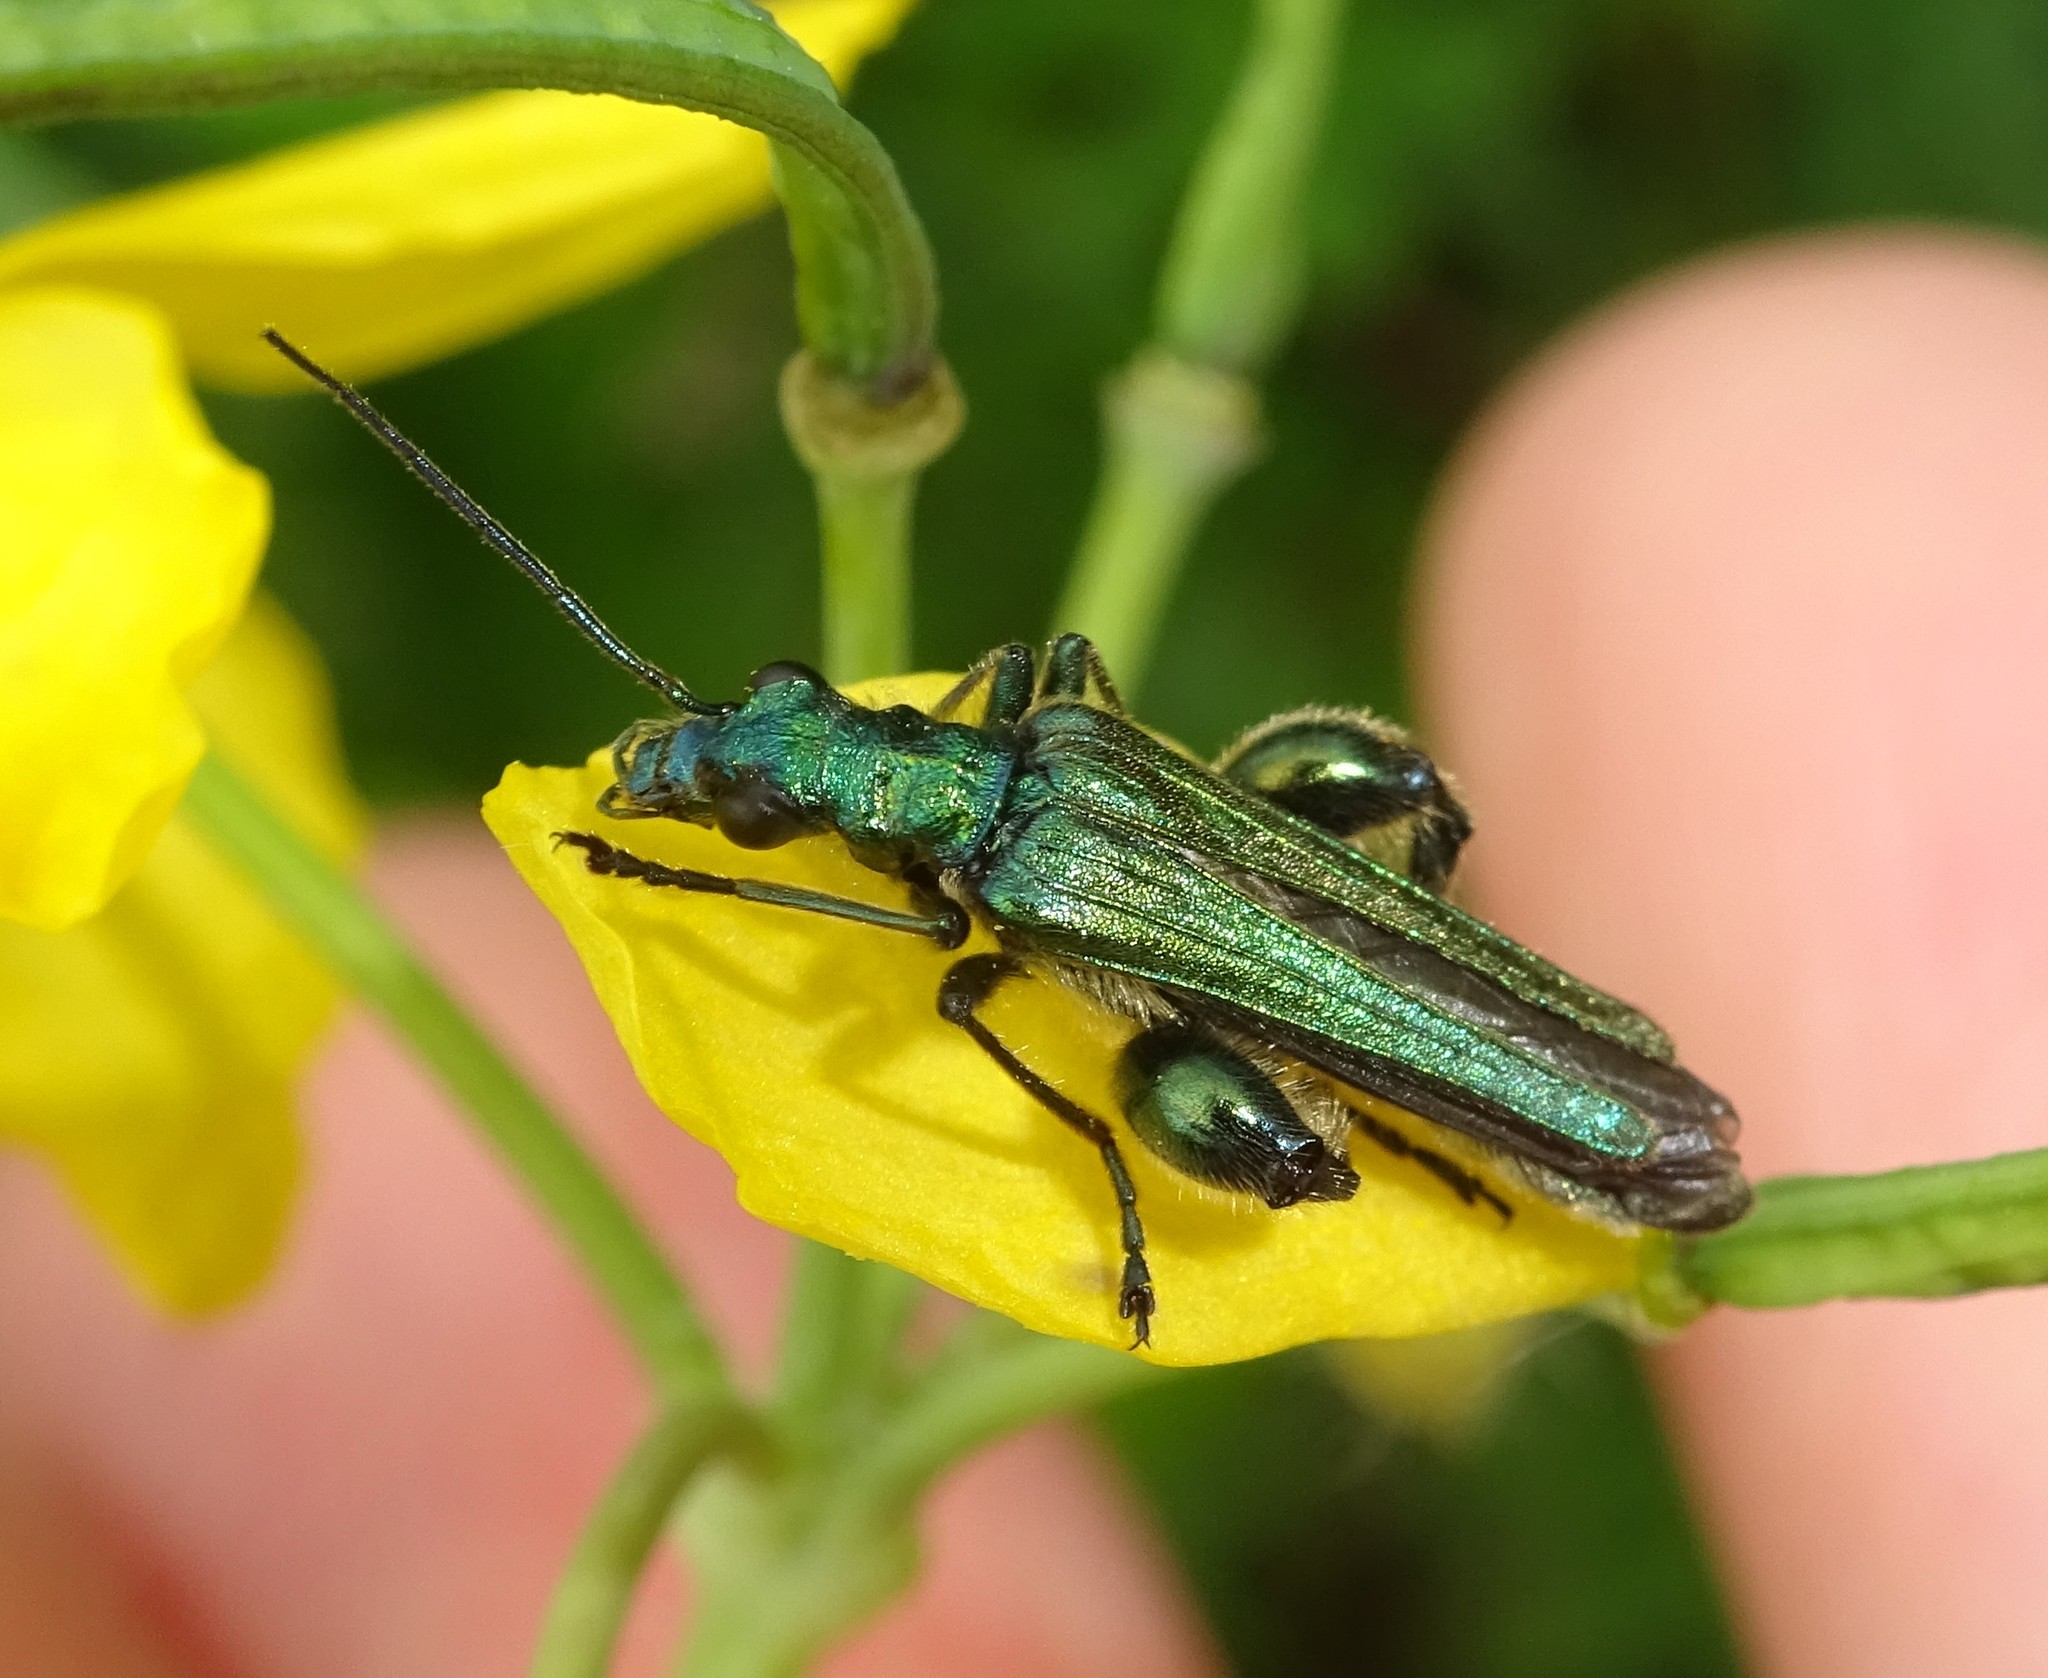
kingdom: Animalia
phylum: Arthropoda
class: Insecta
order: Coleoptera
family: Oedemeridae
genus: Oedemera
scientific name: Oedemera nobilis
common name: Swollen-thighed beetle
